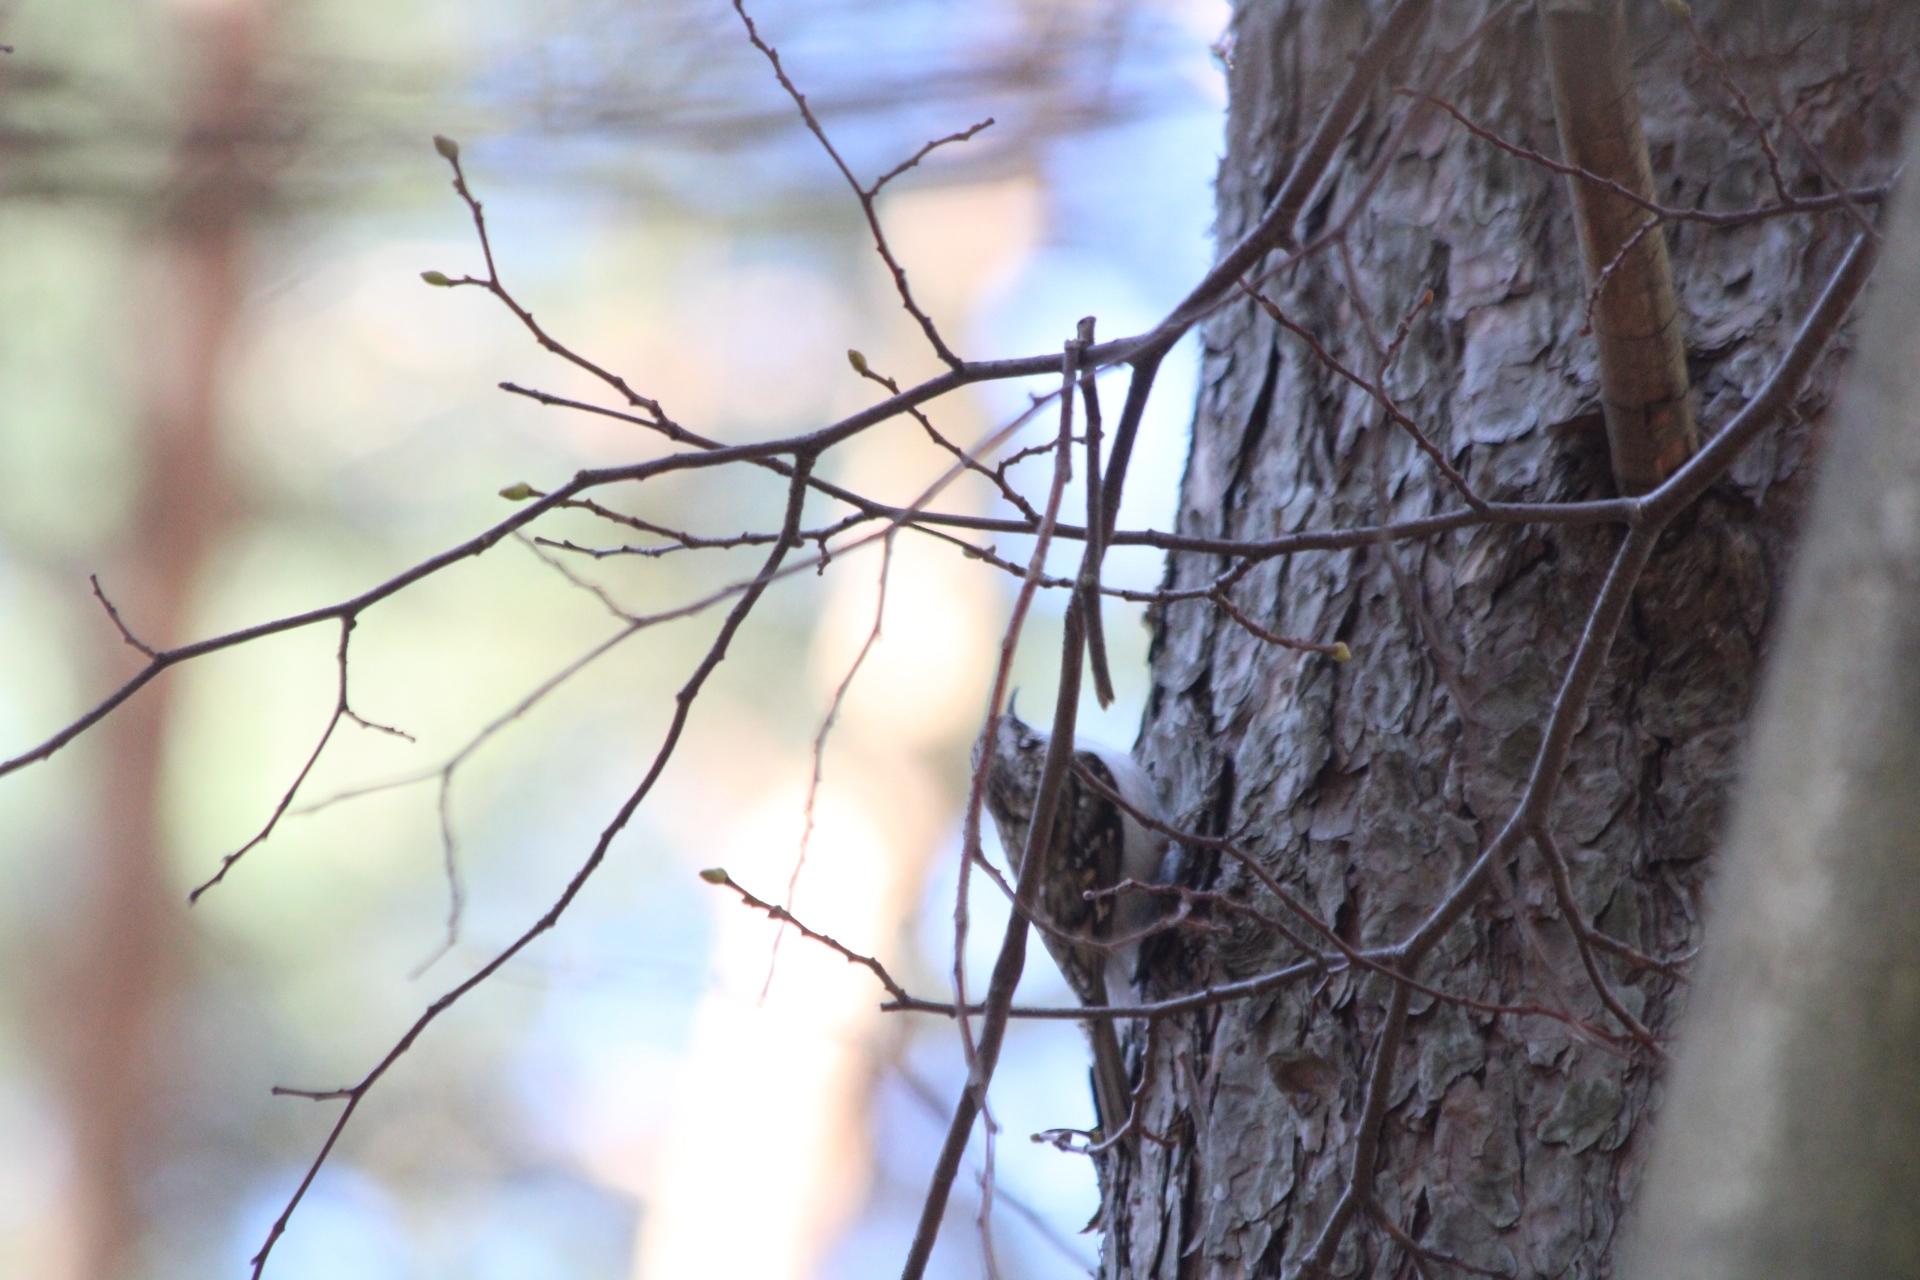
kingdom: Animalia
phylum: Chordata
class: Aves
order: Passeriformes
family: Certhiidae
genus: Certhia
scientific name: Certhia familiaris
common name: Eurasian treecreeper
